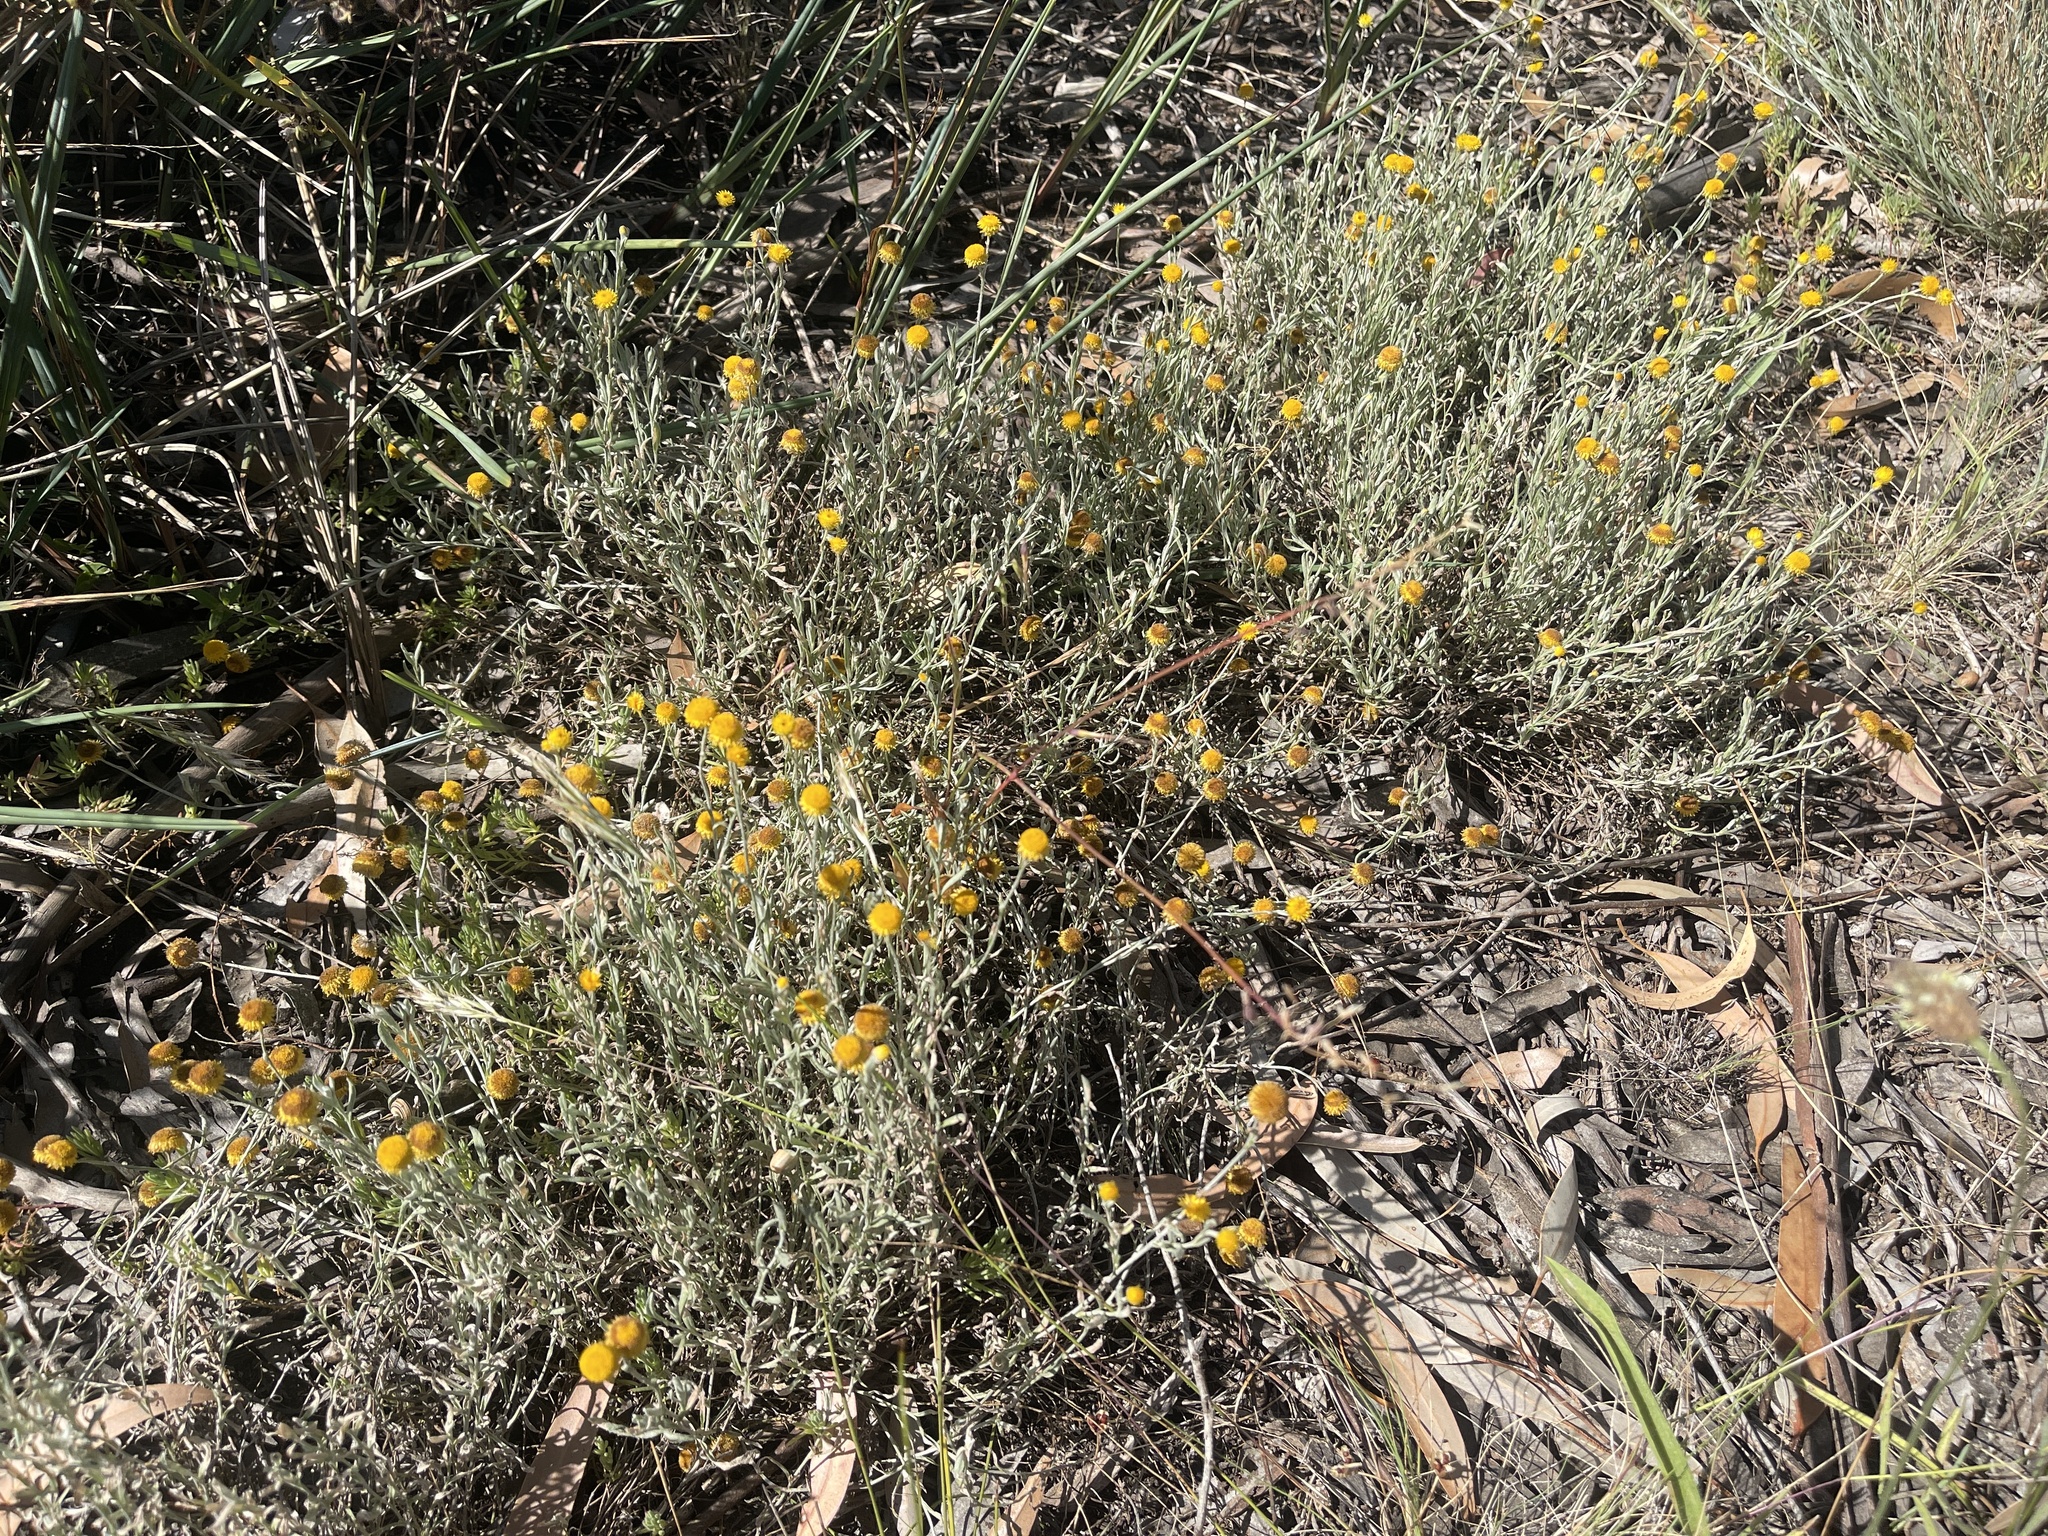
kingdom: Plantae
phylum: Tracheophyta
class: Magnoliopsida
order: Asterales
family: Asteraceae
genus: Chrysocephalum
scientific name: Chrysocephalum apiculatum
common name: Common everlasting
